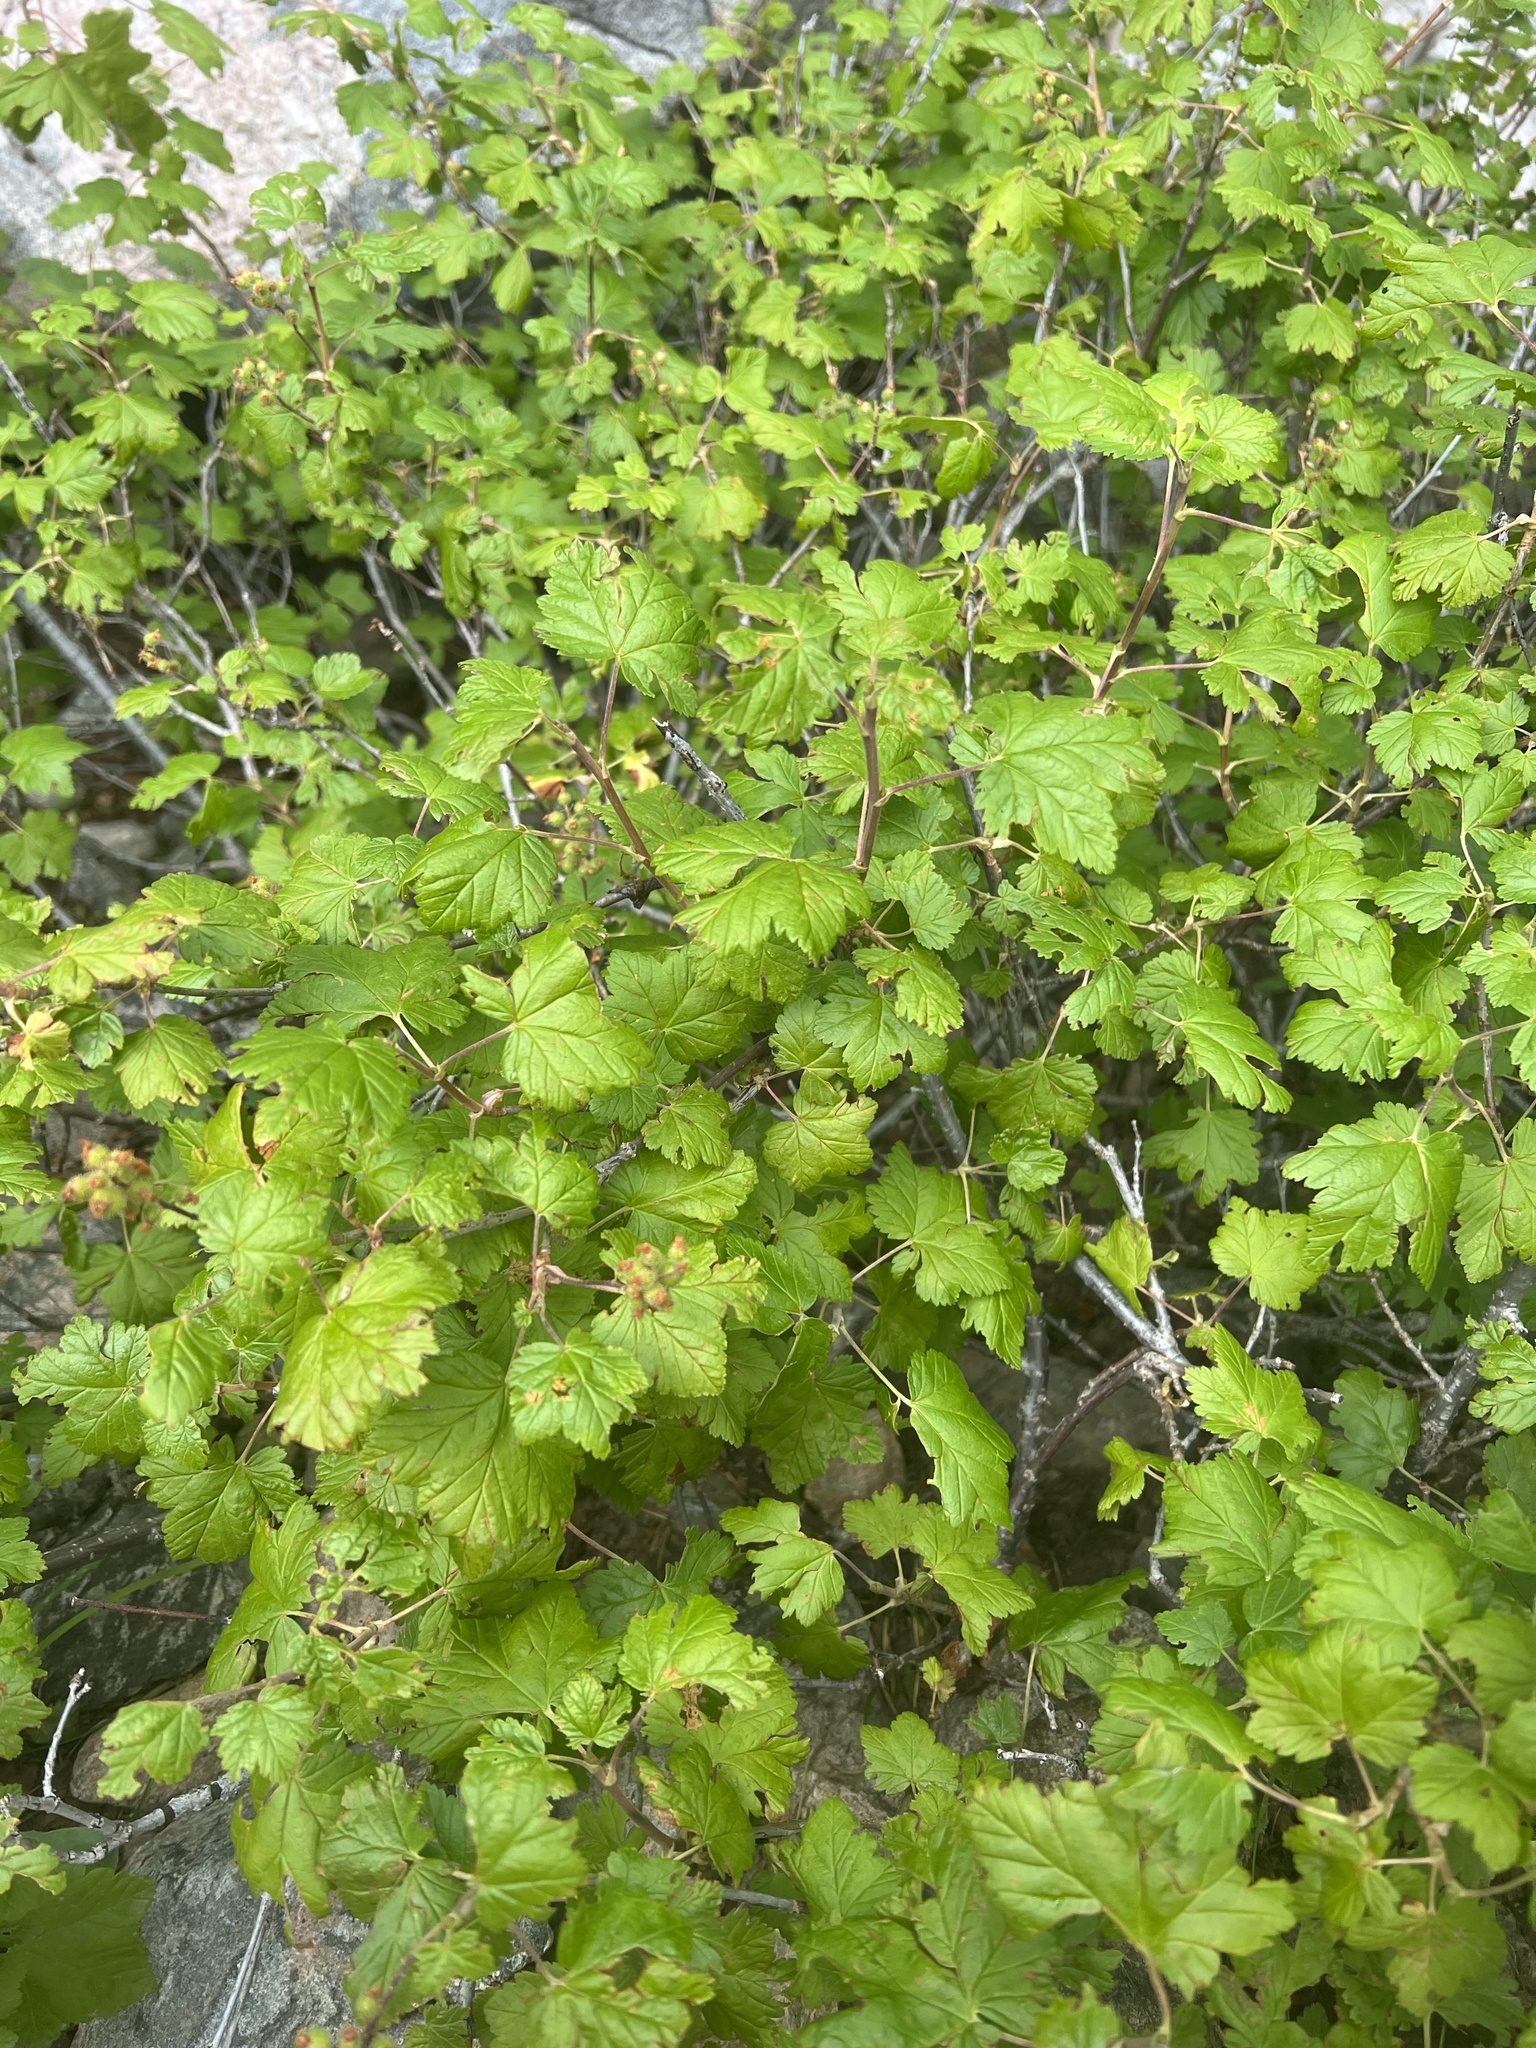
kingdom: Plantae
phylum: Tracheophyta
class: Magnoliopsida
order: Saxifragales
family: Grossulariaceae
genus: Ribes
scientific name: Ribes wolfii
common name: Rothrock currant
